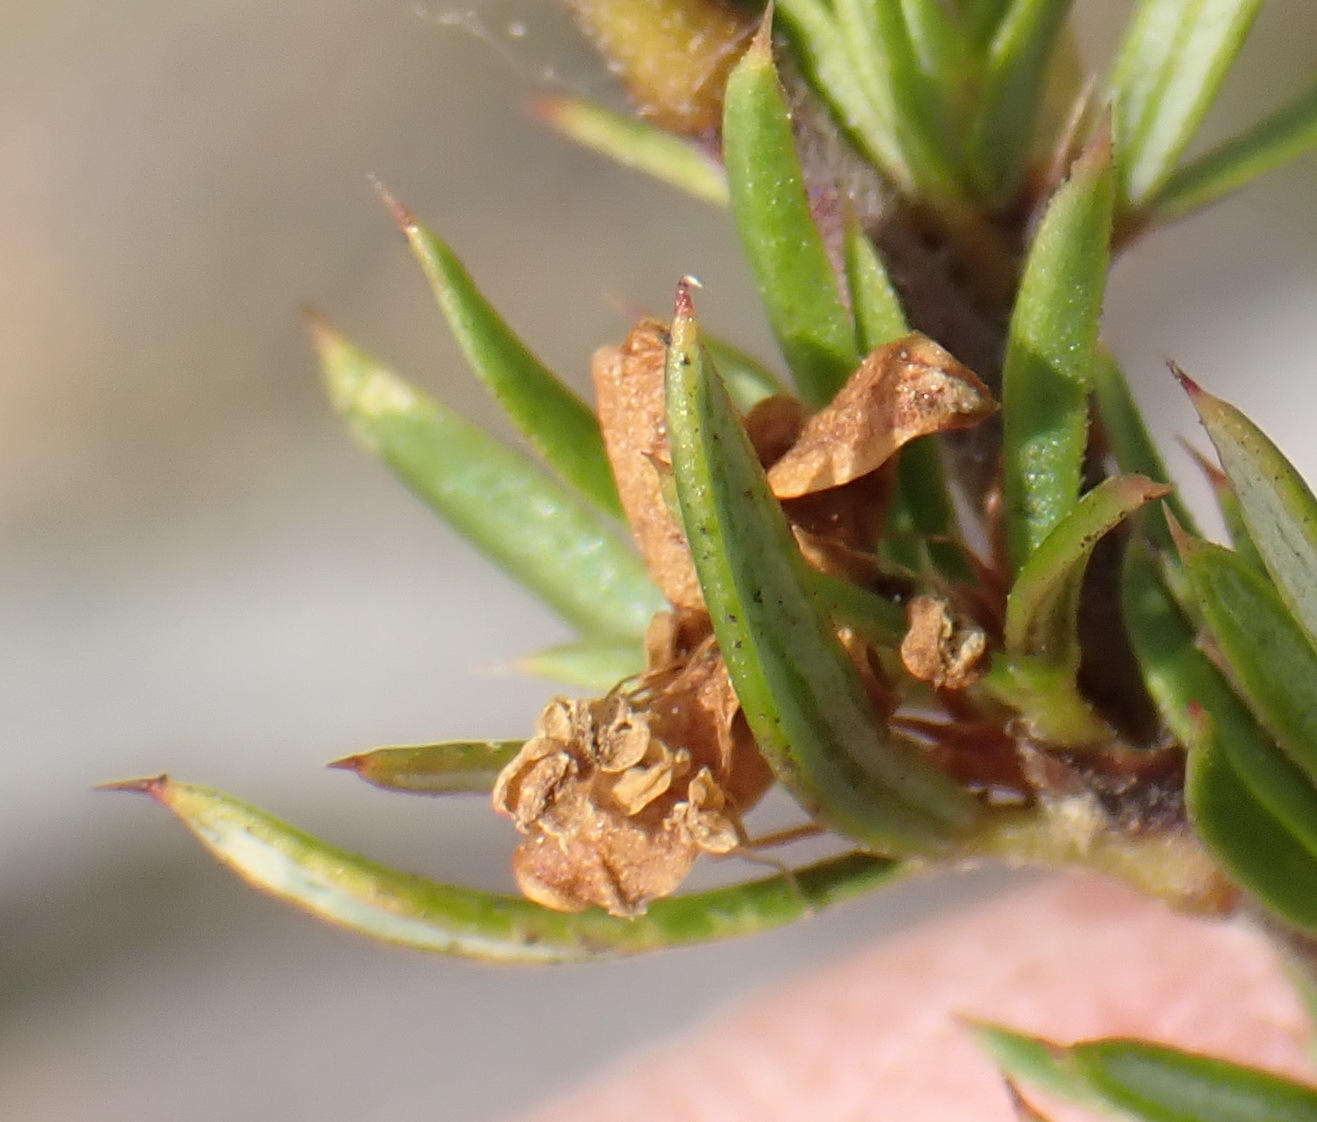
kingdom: Plantae
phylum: Tracheophyta
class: Magnoliopsida
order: Rosales
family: Rosaceae
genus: Cliffortia
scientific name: Cliffortia arcuata
